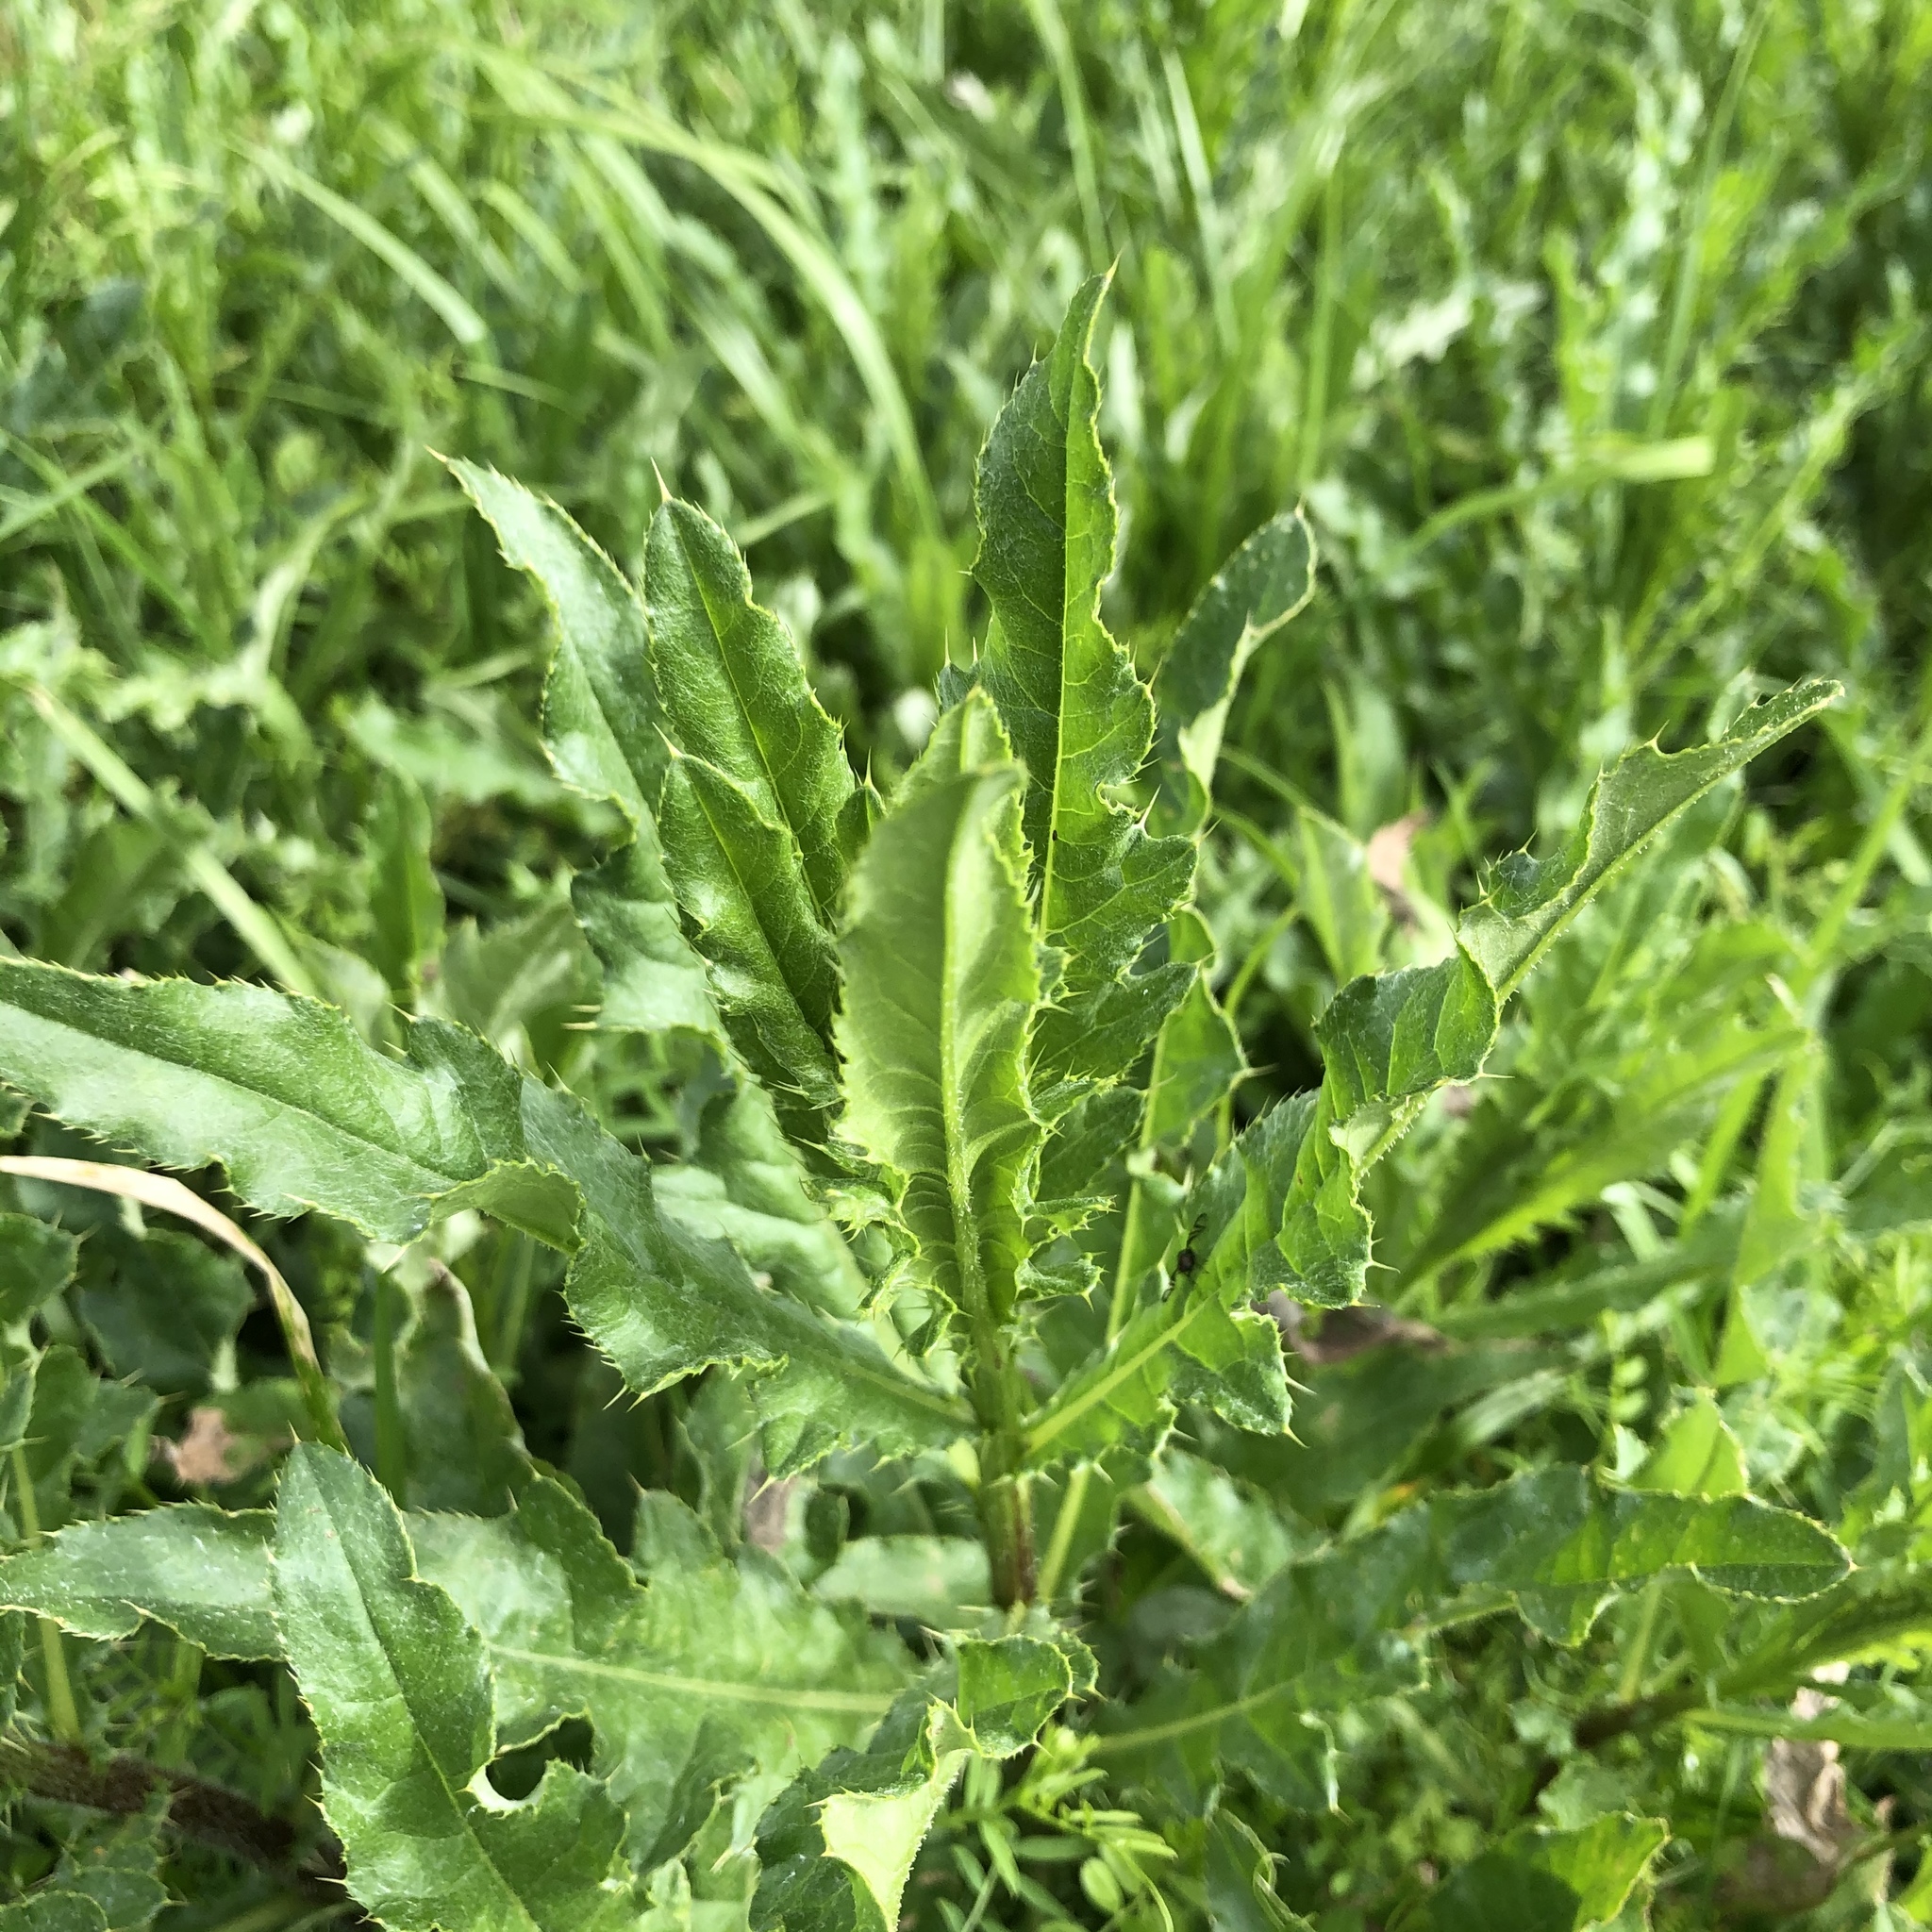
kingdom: Plantae
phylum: Tracheophyta
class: Magnoliopsida
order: Brassicales
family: Brassicaceae
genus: Lepidium
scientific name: Lepidium virginicum
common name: Least pepperwort
